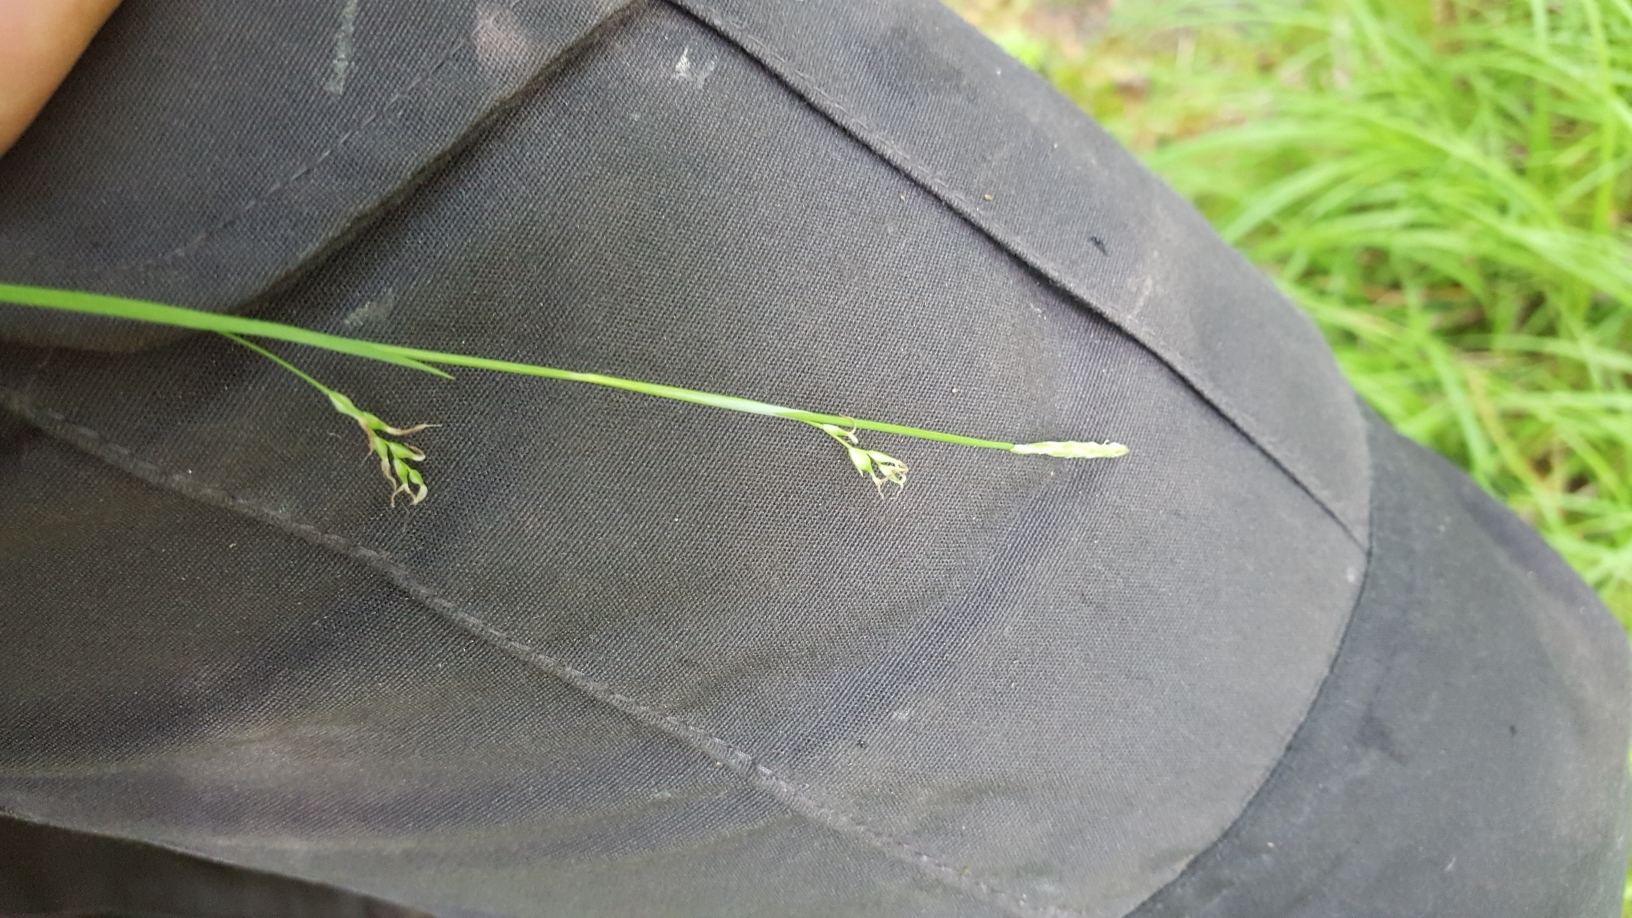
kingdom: Plantae
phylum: Tracheophyta
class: Liliopsida
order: Poales
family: Cyperaceae
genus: Carex
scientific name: Carex vaginata
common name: Sheathed sedge
